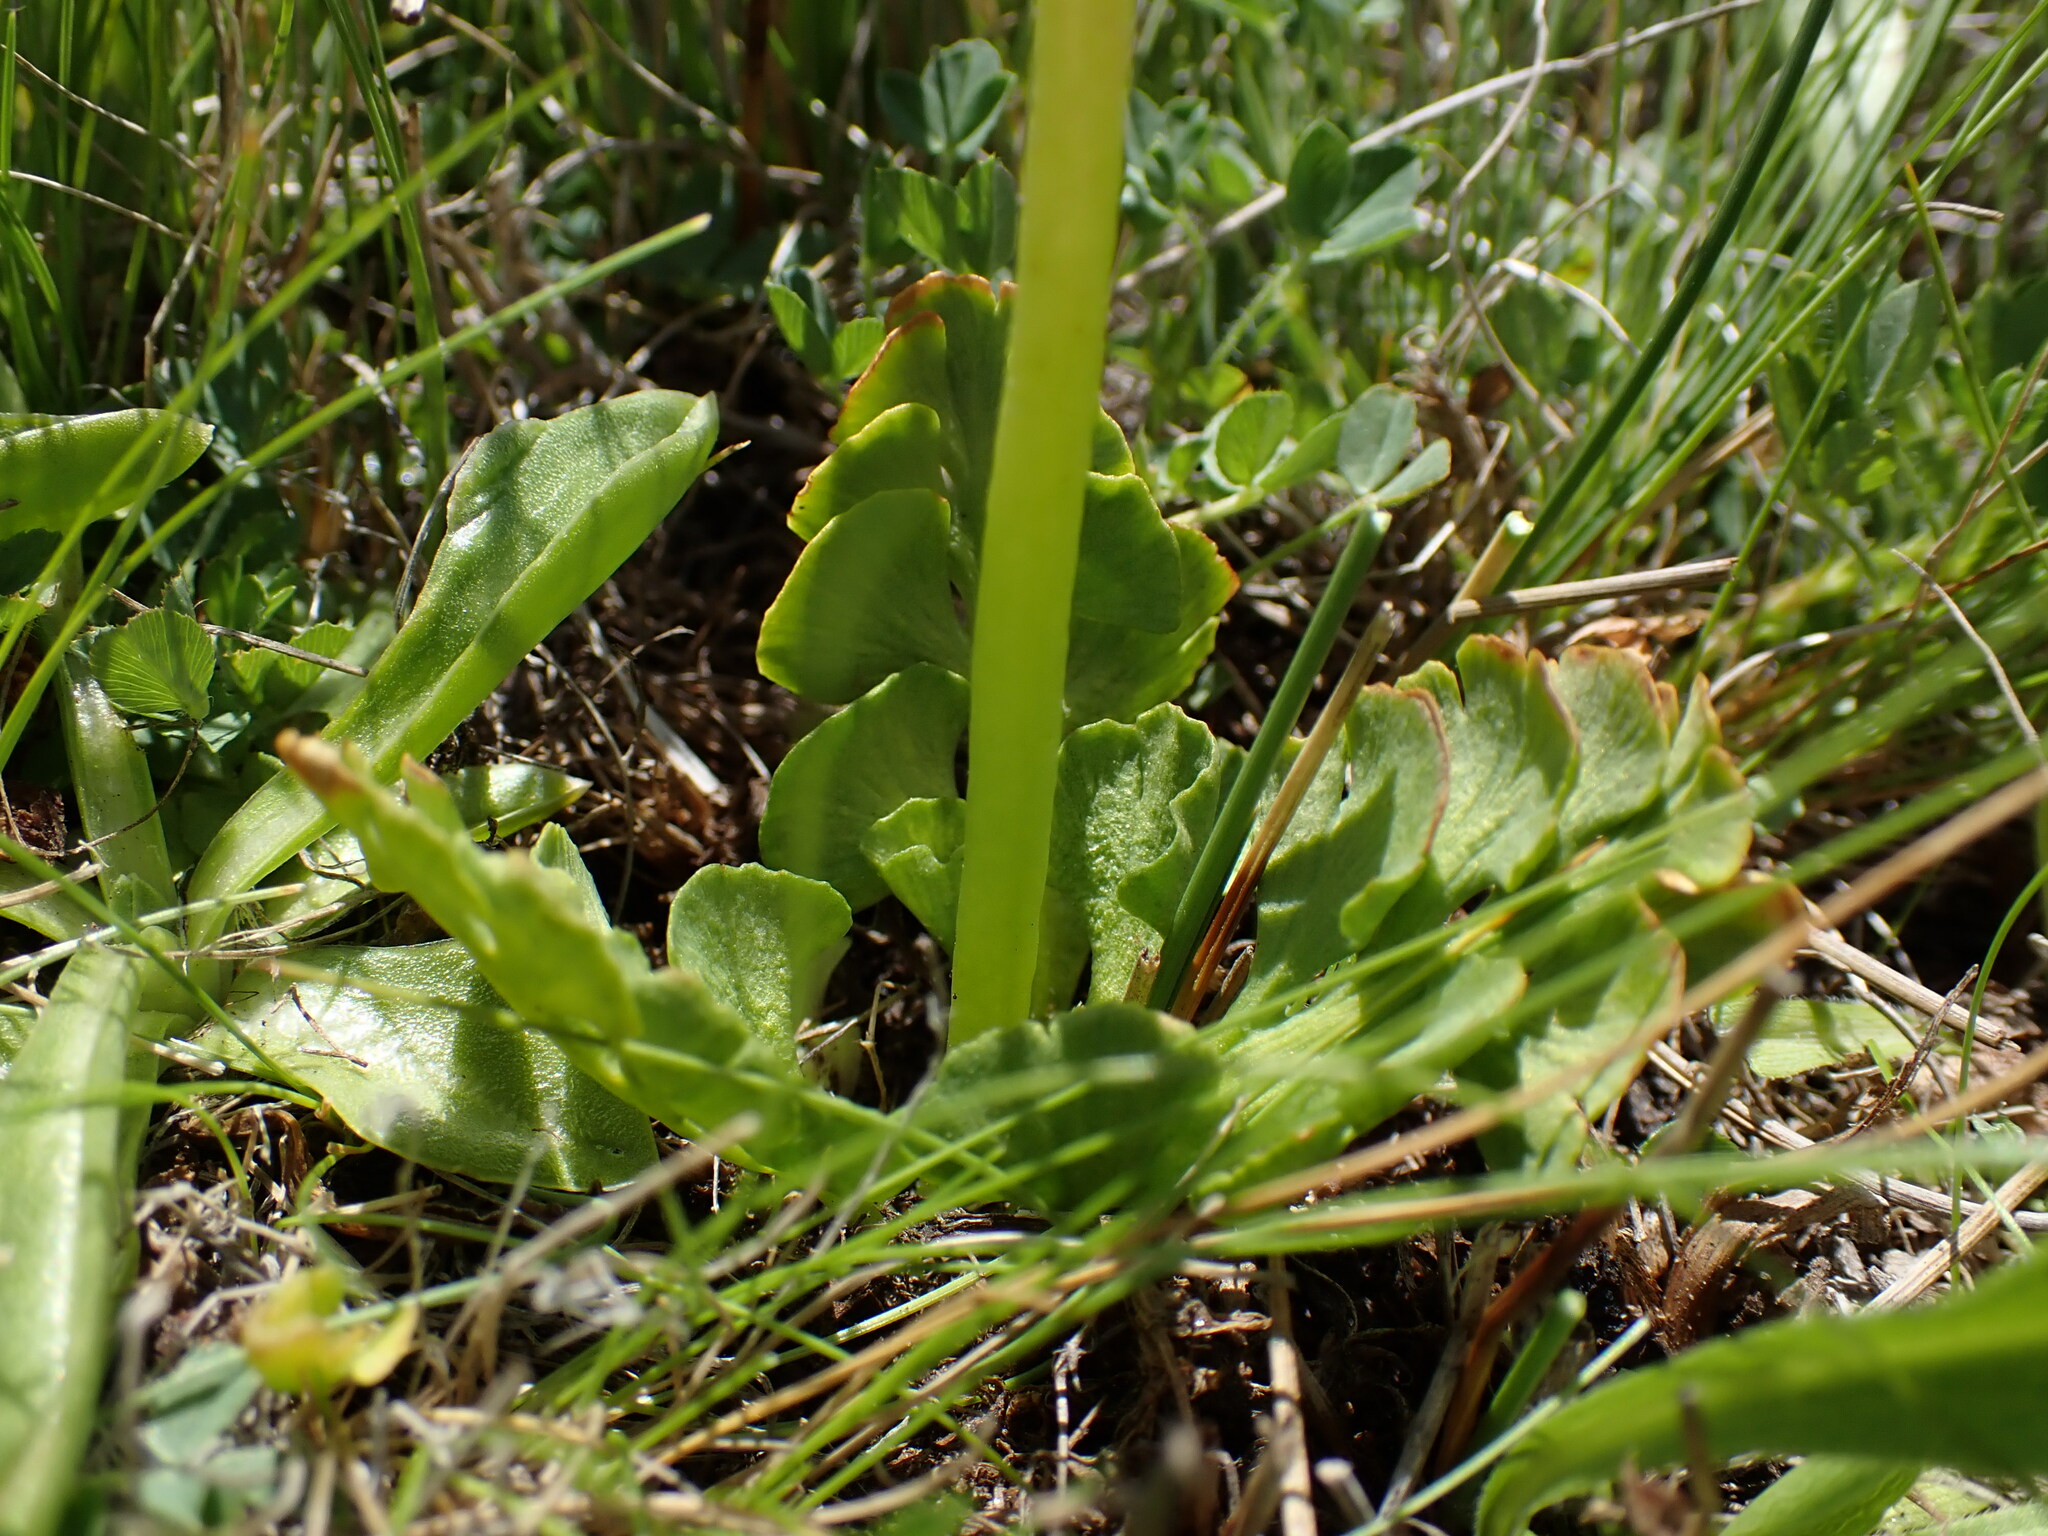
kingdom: Plantae
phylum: Tracheophyta
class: Polypodiopsida
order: Ophioglossales
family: Ophioglossaceae
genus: Botrychium
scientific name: Botrychium simplex
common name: Least moonwort
